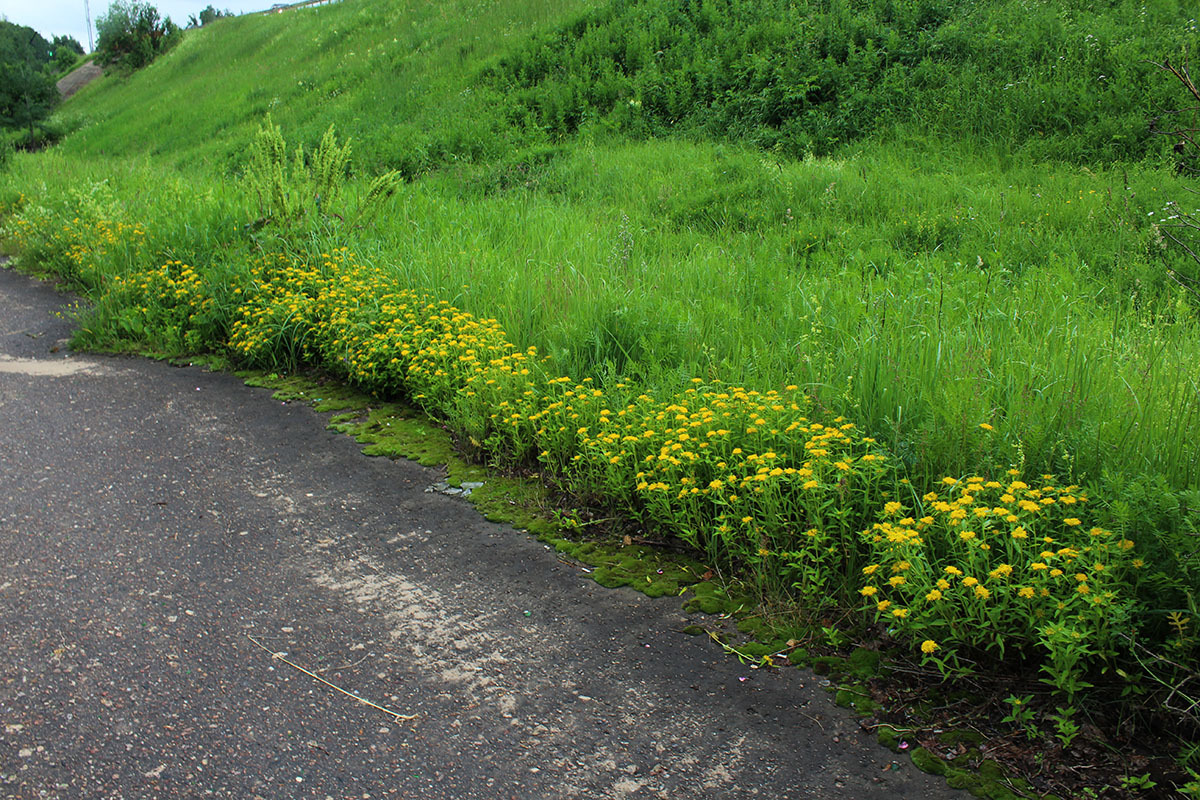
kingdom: Plantae
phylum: Tracheophyta
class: Magnoliopsida
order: Saxifragales
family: Crassulaceae
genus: Phedimus
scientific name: Phedimus aizoon
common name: Orpin aizoon
